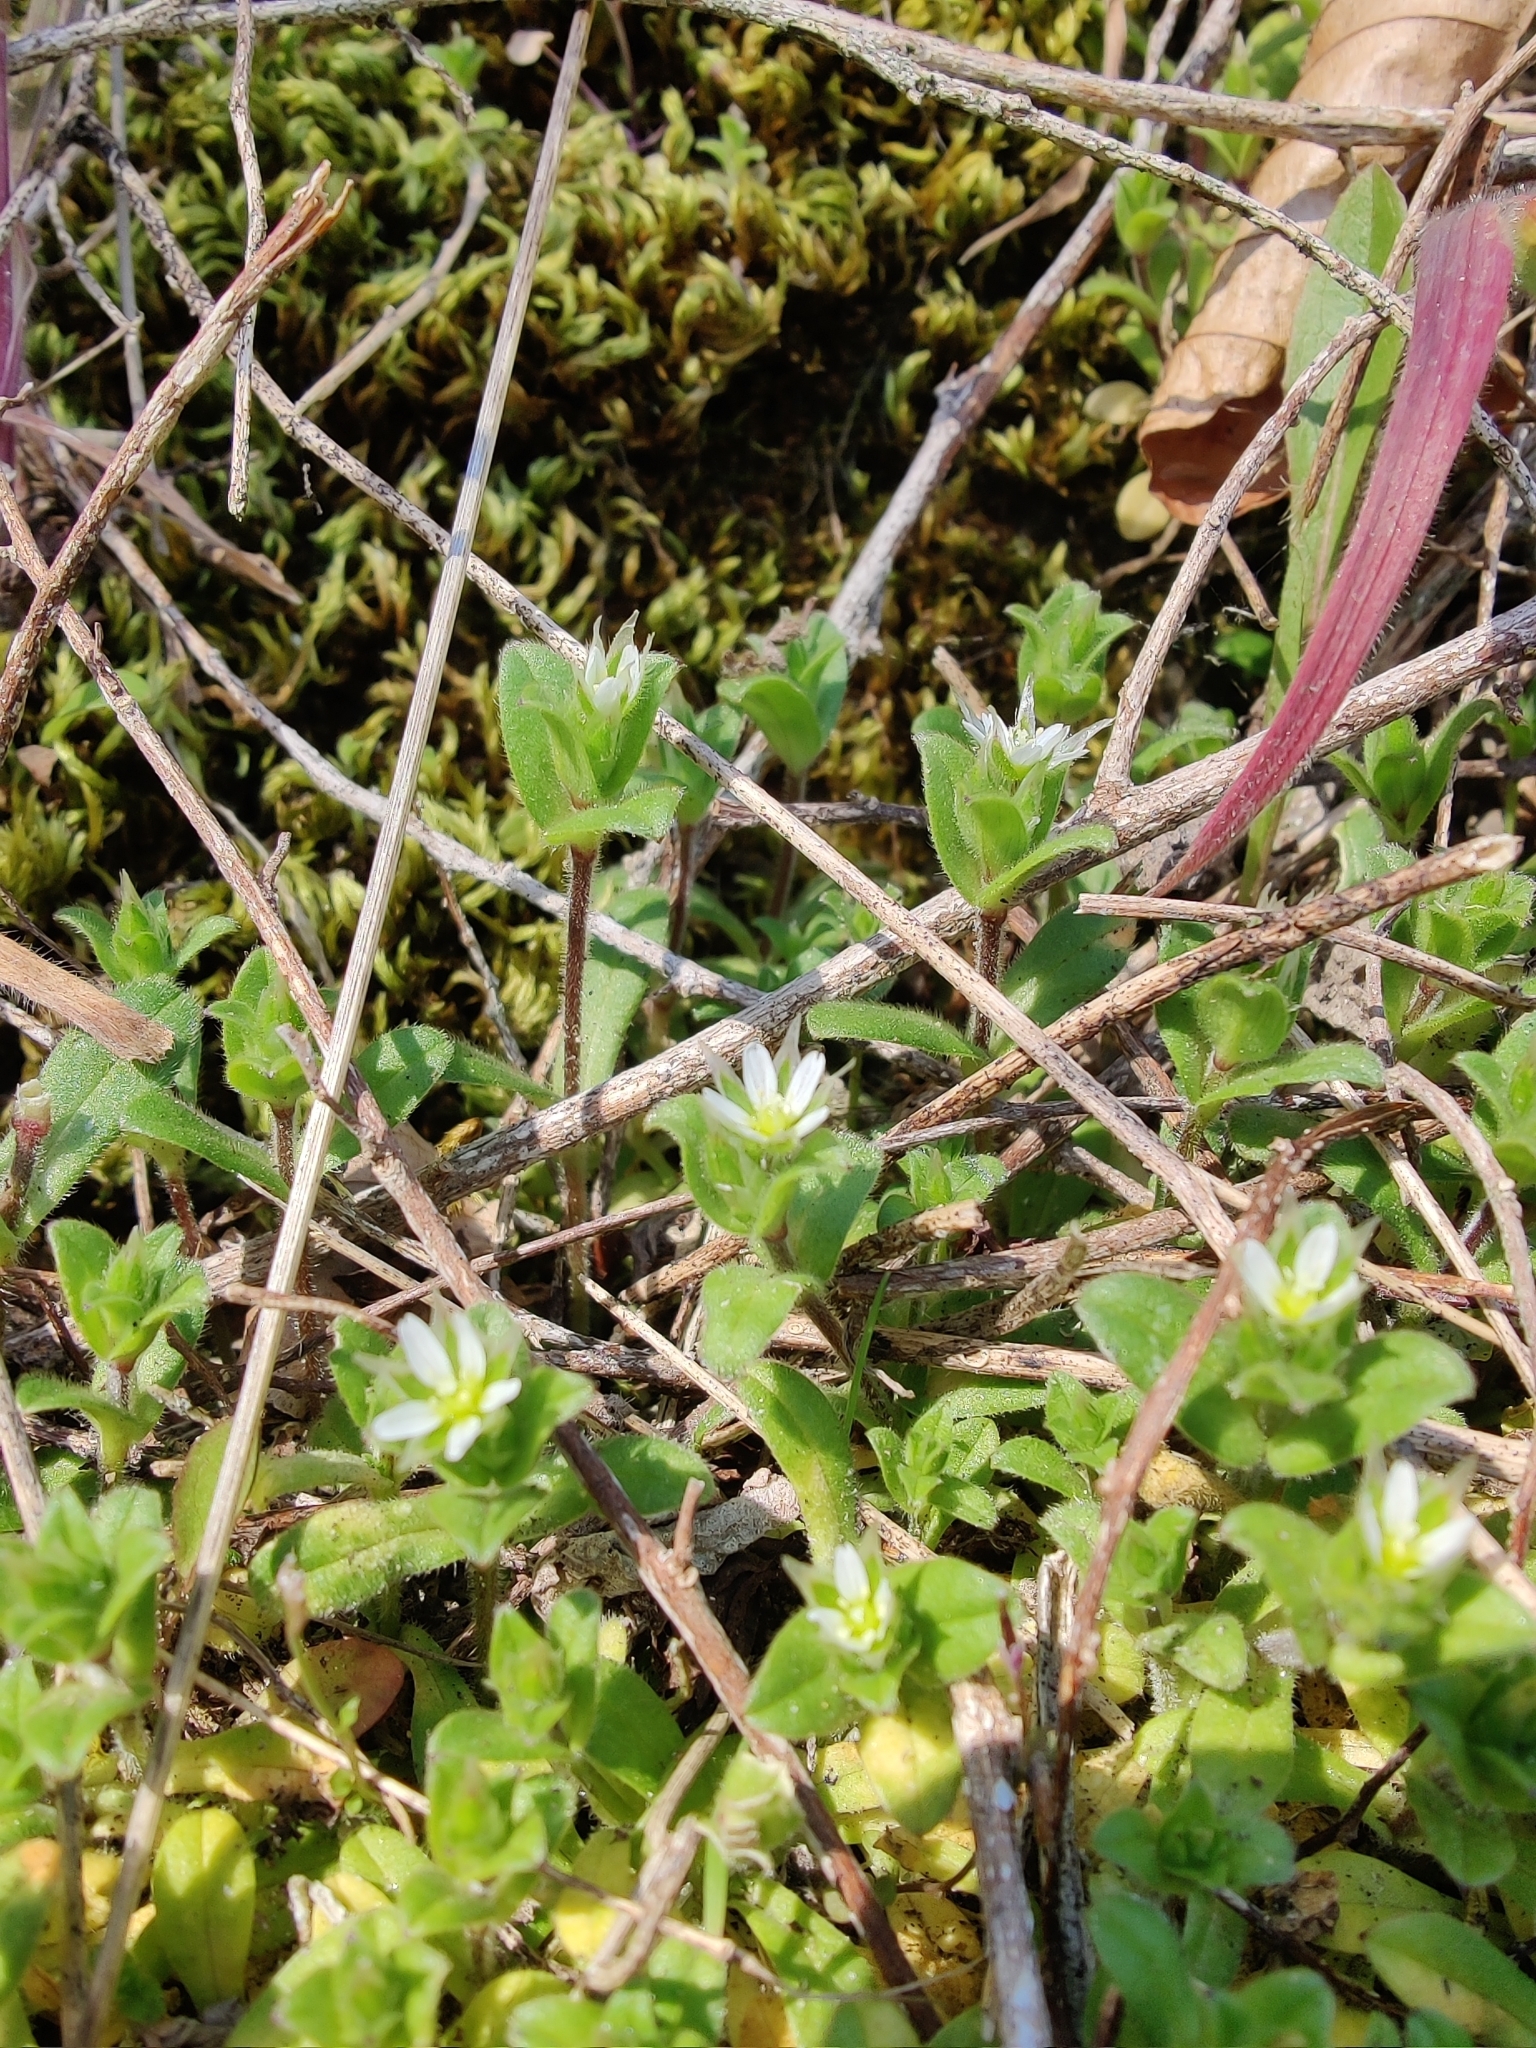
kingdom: Plantae
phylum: Tracheophyta
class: Magnoliopsida
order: Caryophyllales
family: Caryophyllaceae
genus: Stellaria
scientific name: Stellaria media
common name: Common chickweed
